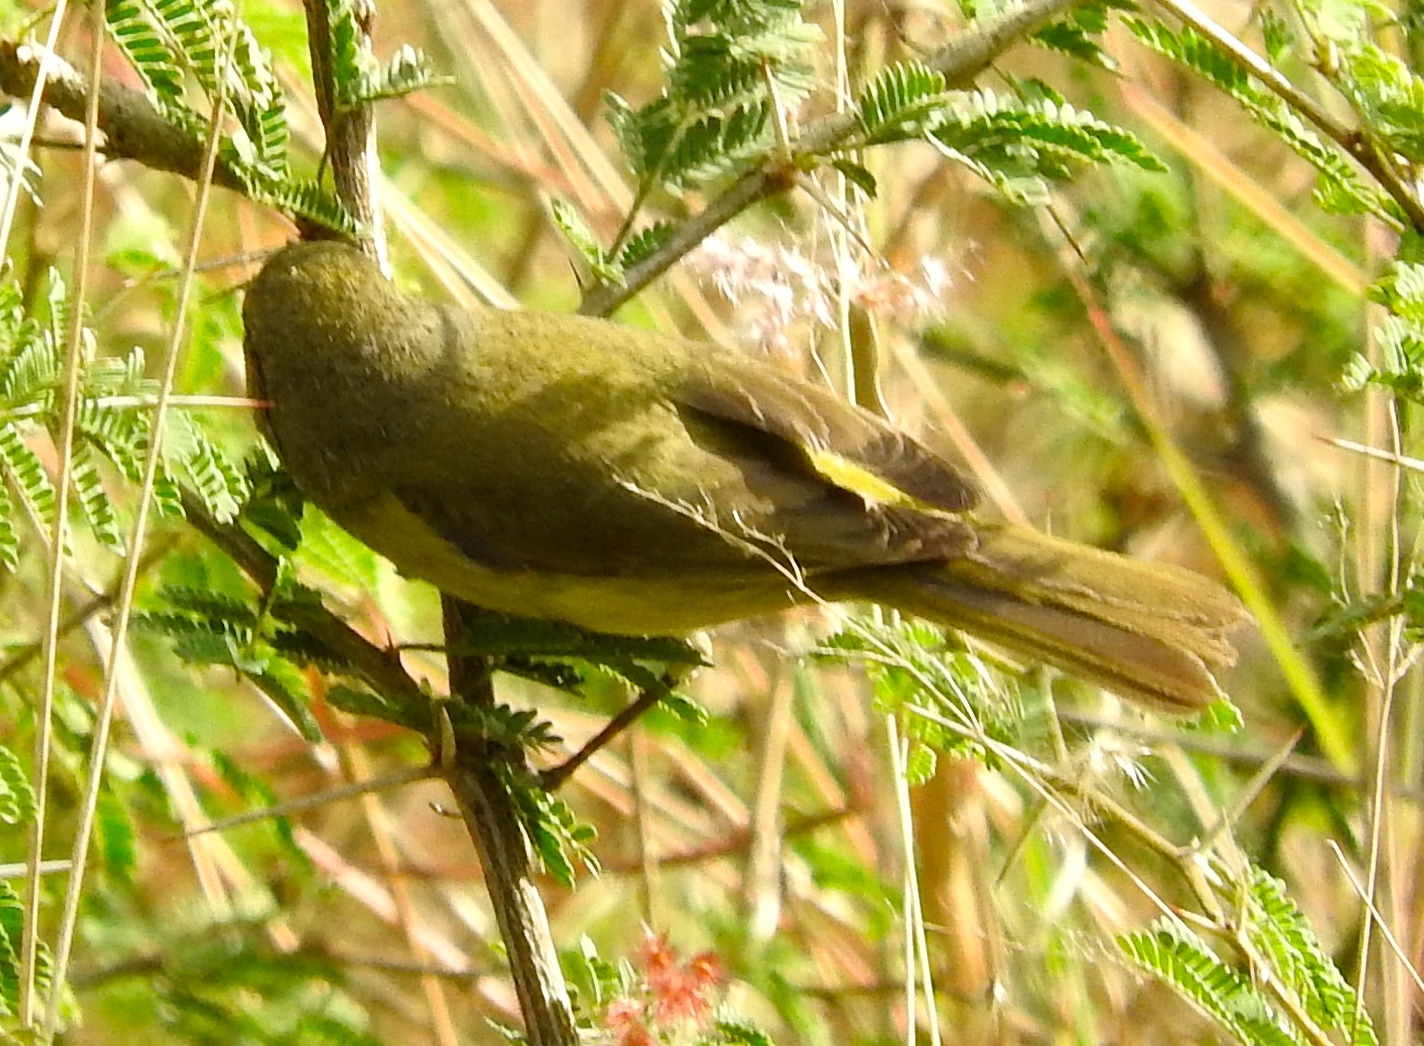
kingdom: Animalia
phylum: Chordata
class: Aves
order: Passeriformes
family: Parulidae
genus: Leiothlypis
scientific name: Leiothlypis celata
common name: Orange-crowned warbler
